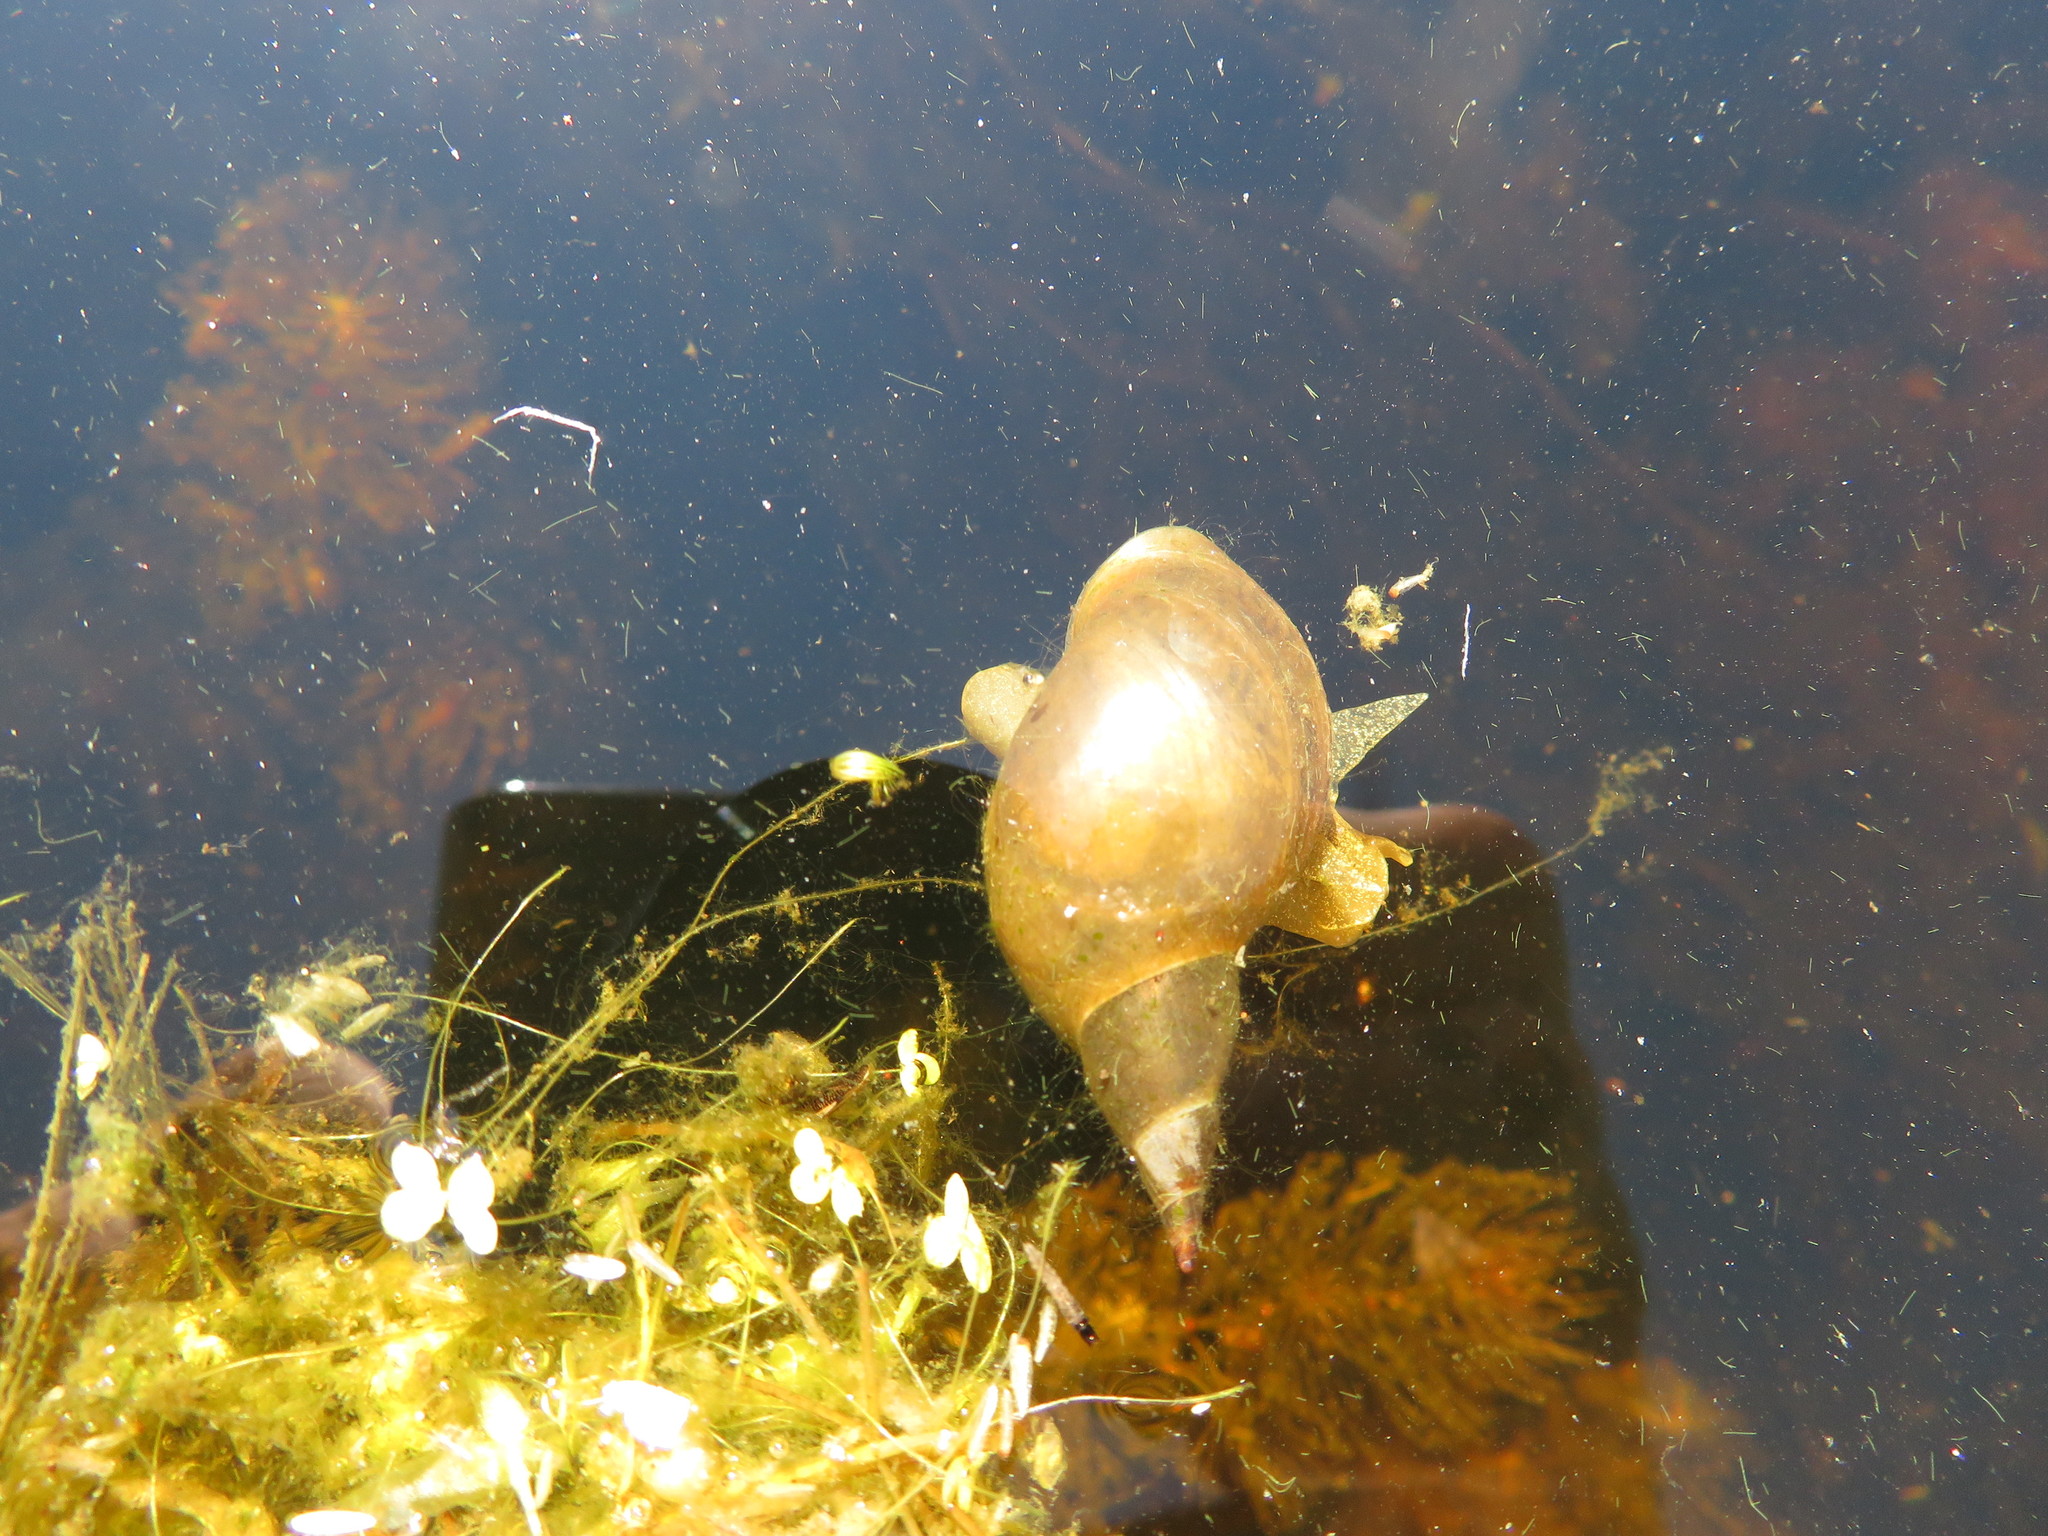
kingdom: Animalia
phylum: Mollusca
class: Gastropoda
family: Lymnaeidae
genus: Lymnaea
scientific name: Lymnaea stagnalis
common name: Great pond snail
